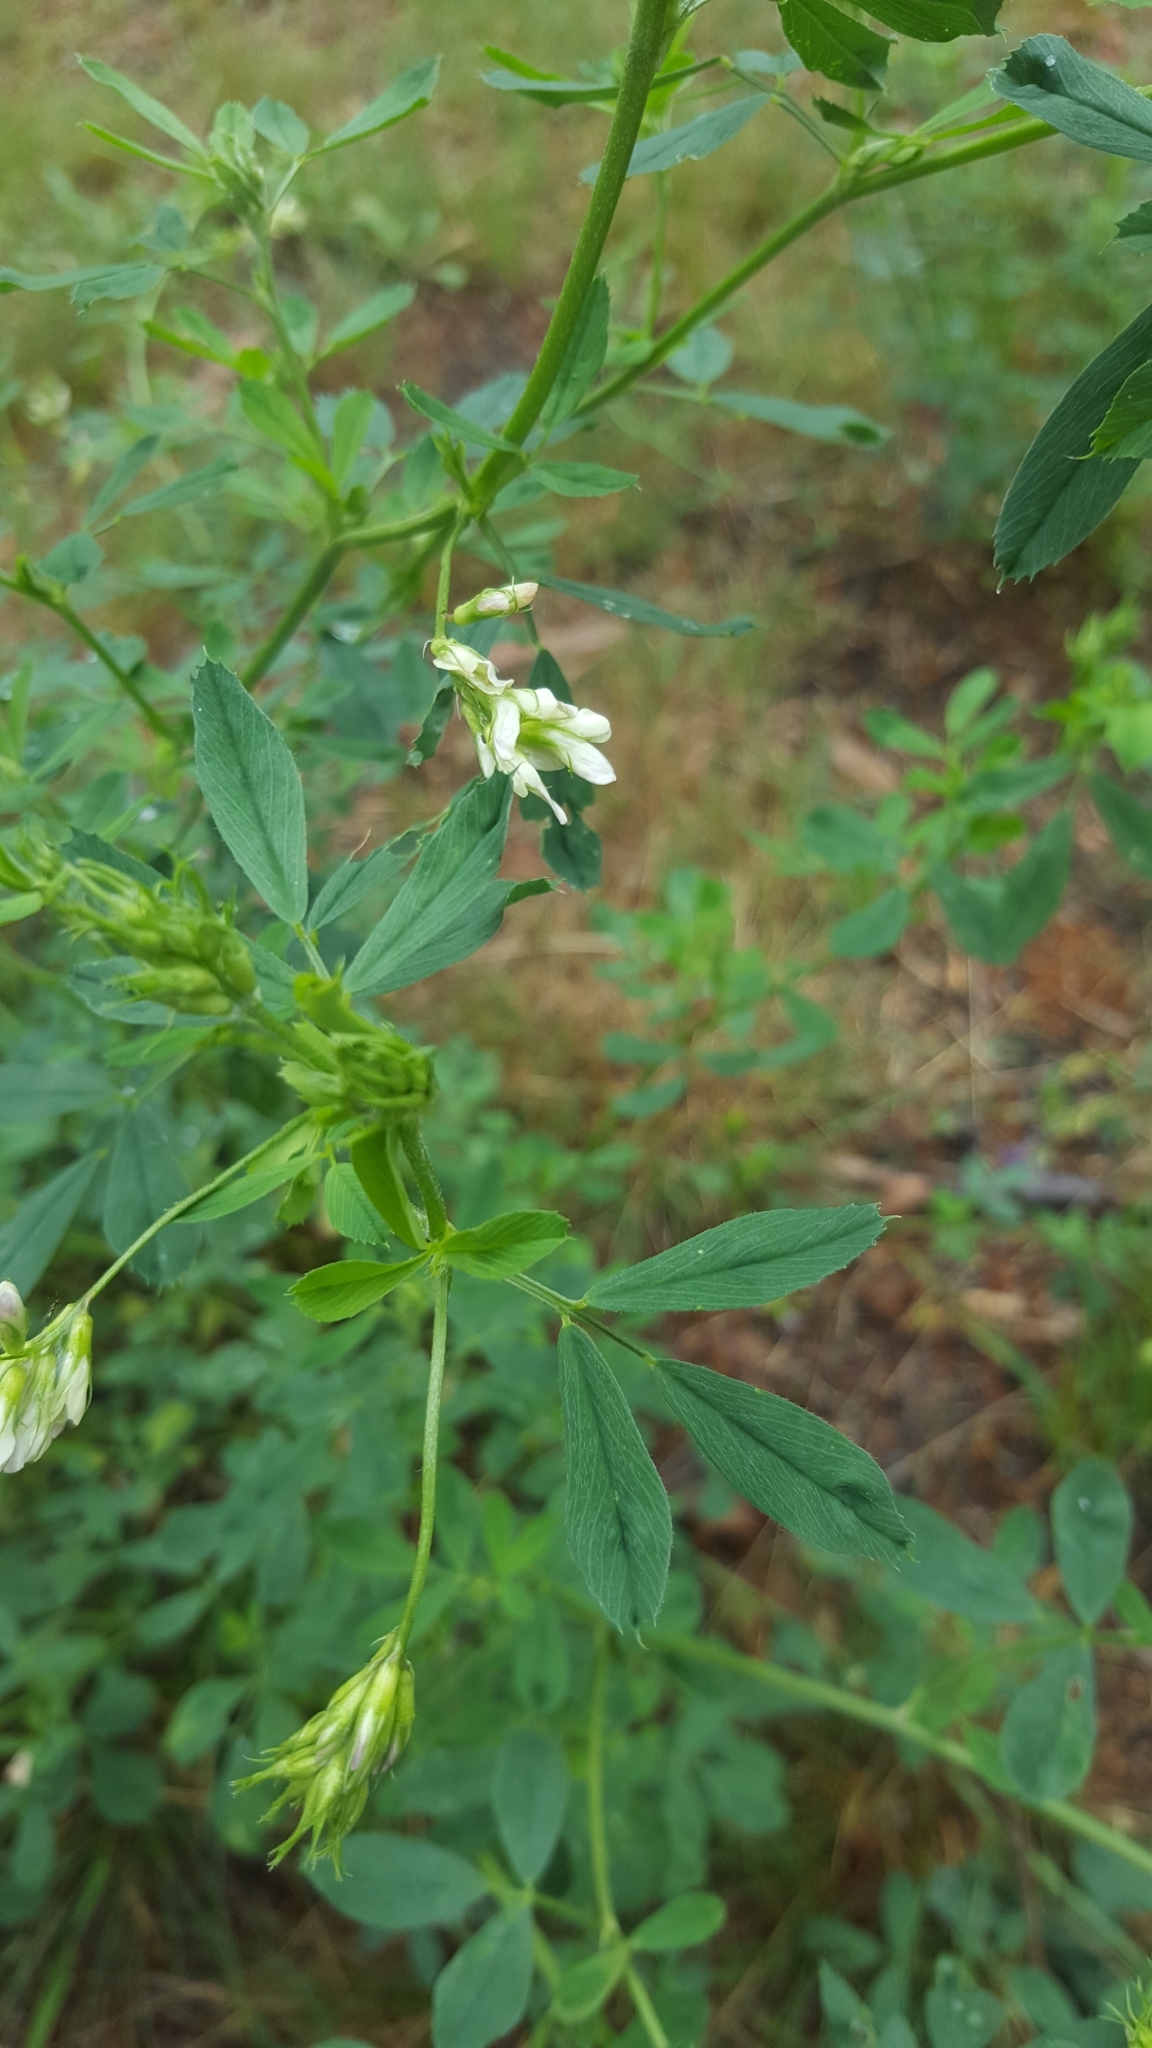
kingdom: Plantae
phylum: Tracheophyta
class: Magnoliopsida
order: Fabales
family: Fabaceae
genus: Medicago
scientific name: Medicago varia
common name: Sand lucerne
